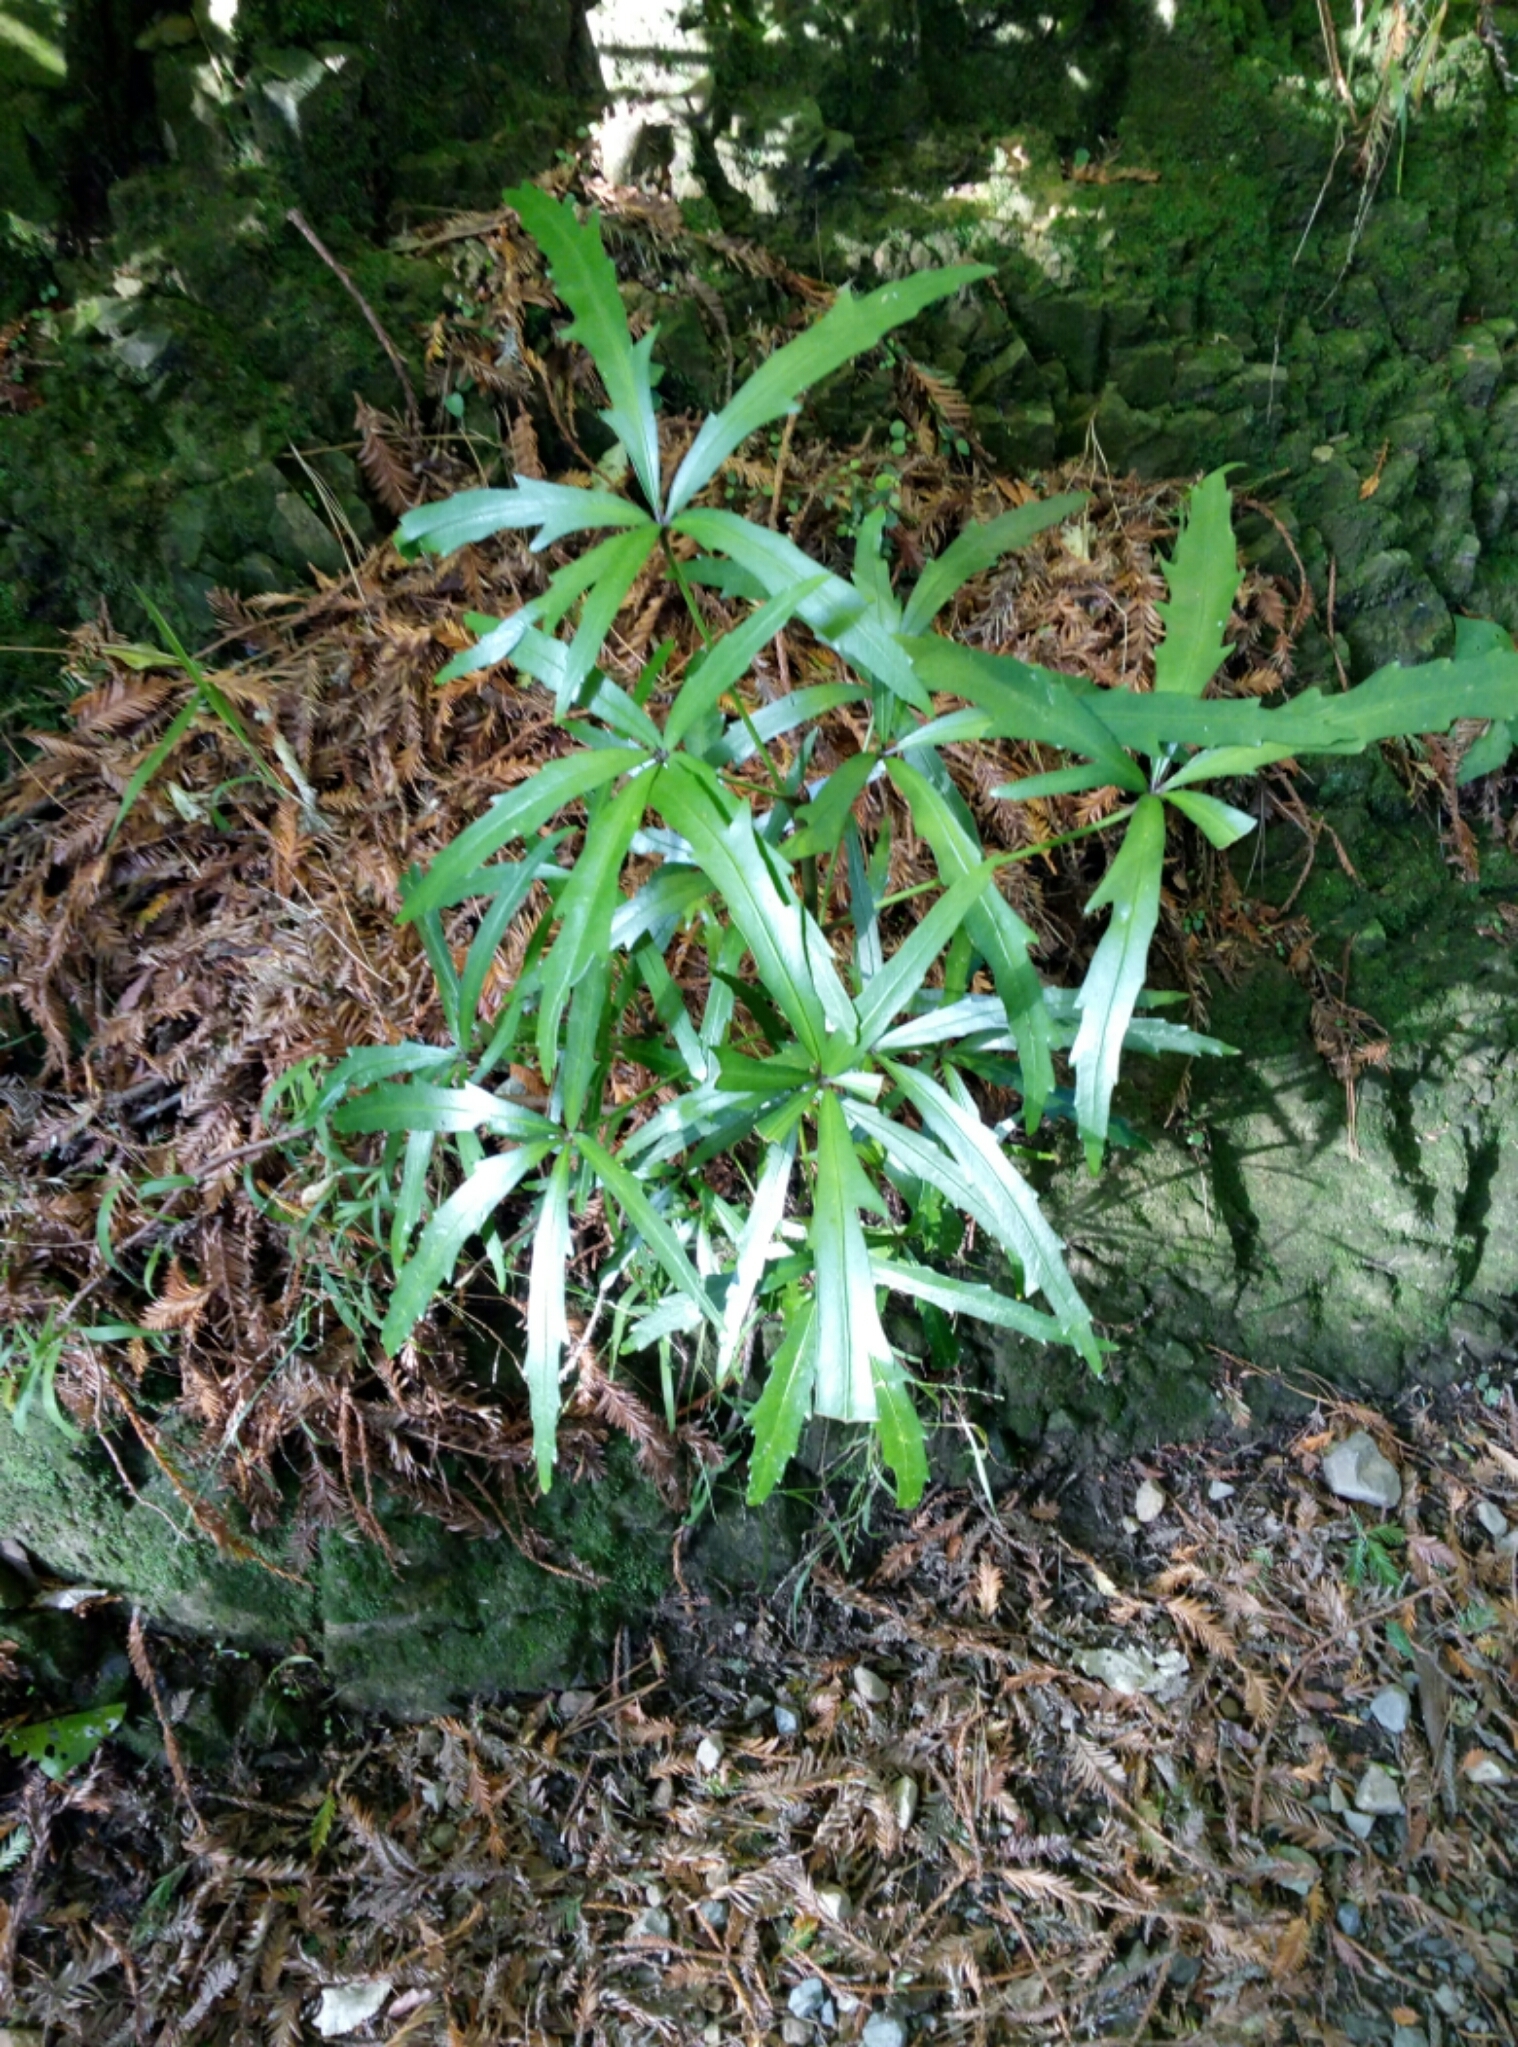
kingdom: Plantae
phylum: Tracheophyta
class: Magnoliopsida
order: Apiales
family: Araliaceae
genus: Pseudopanax
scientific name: Pseudopanax
